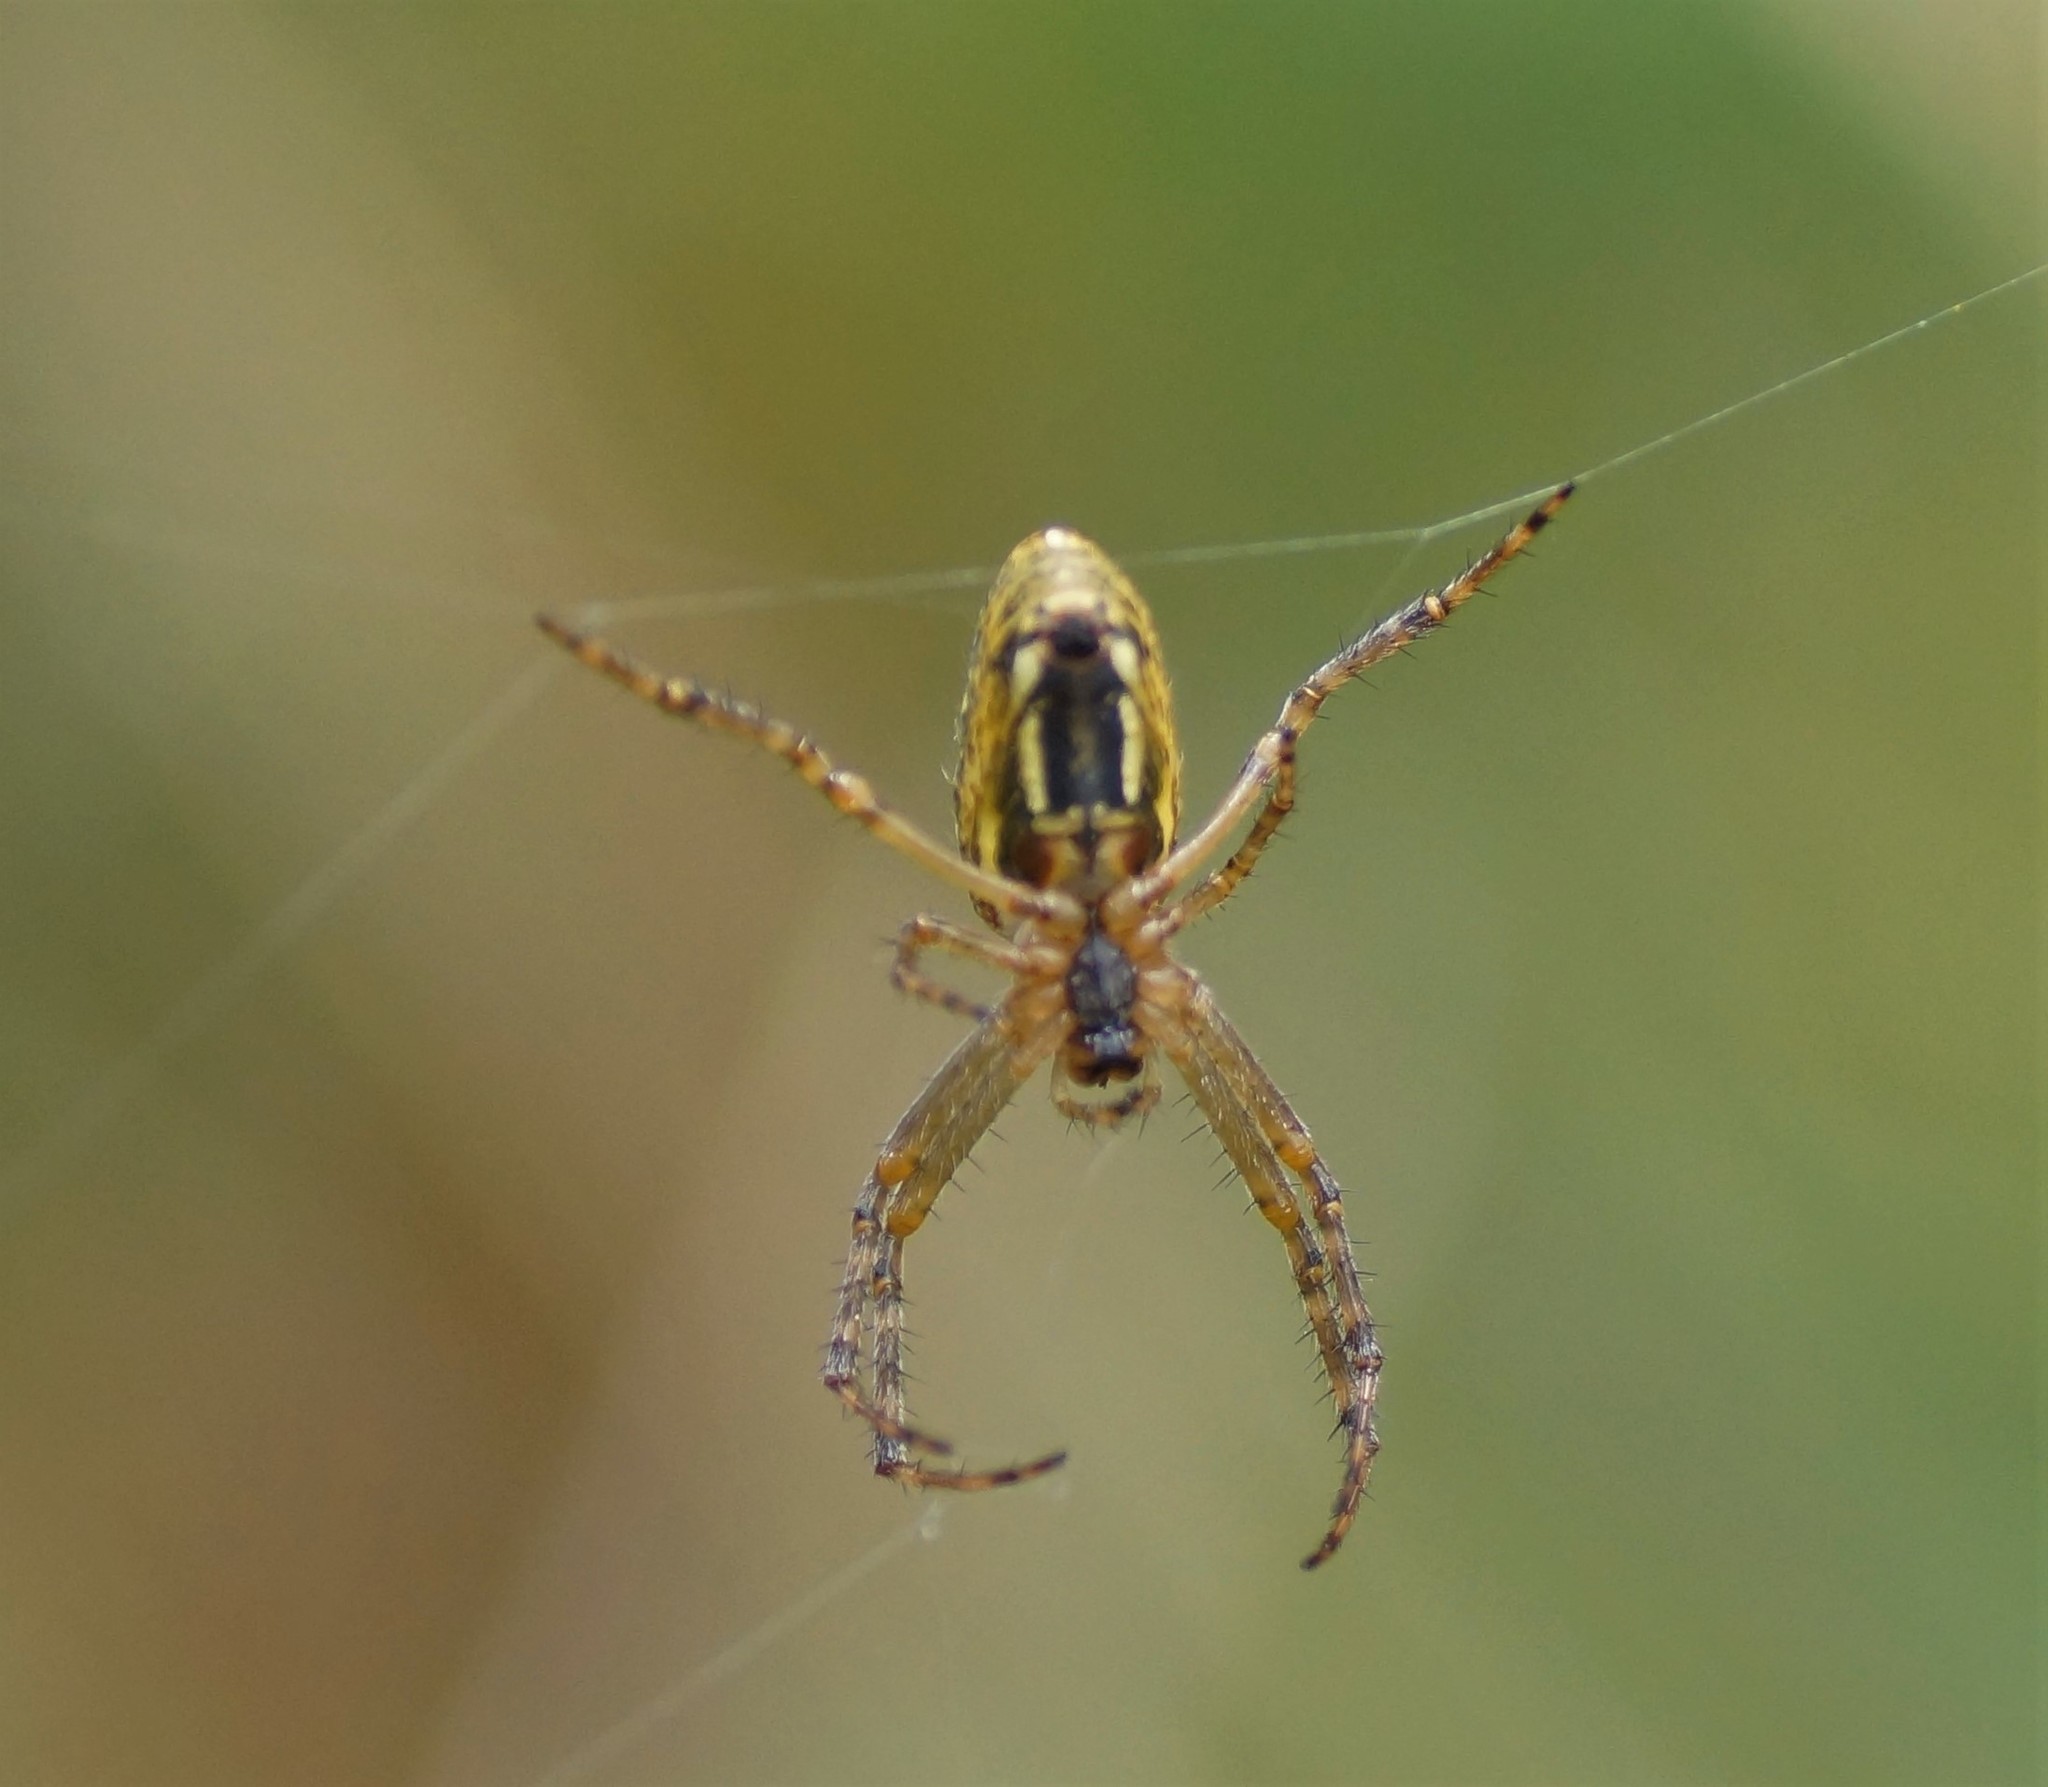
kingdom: Animalia
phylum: Arthropoda
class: Arachnida
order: Araneae
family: Araneidae
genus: Plebs
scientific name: Plebs bradleyi
